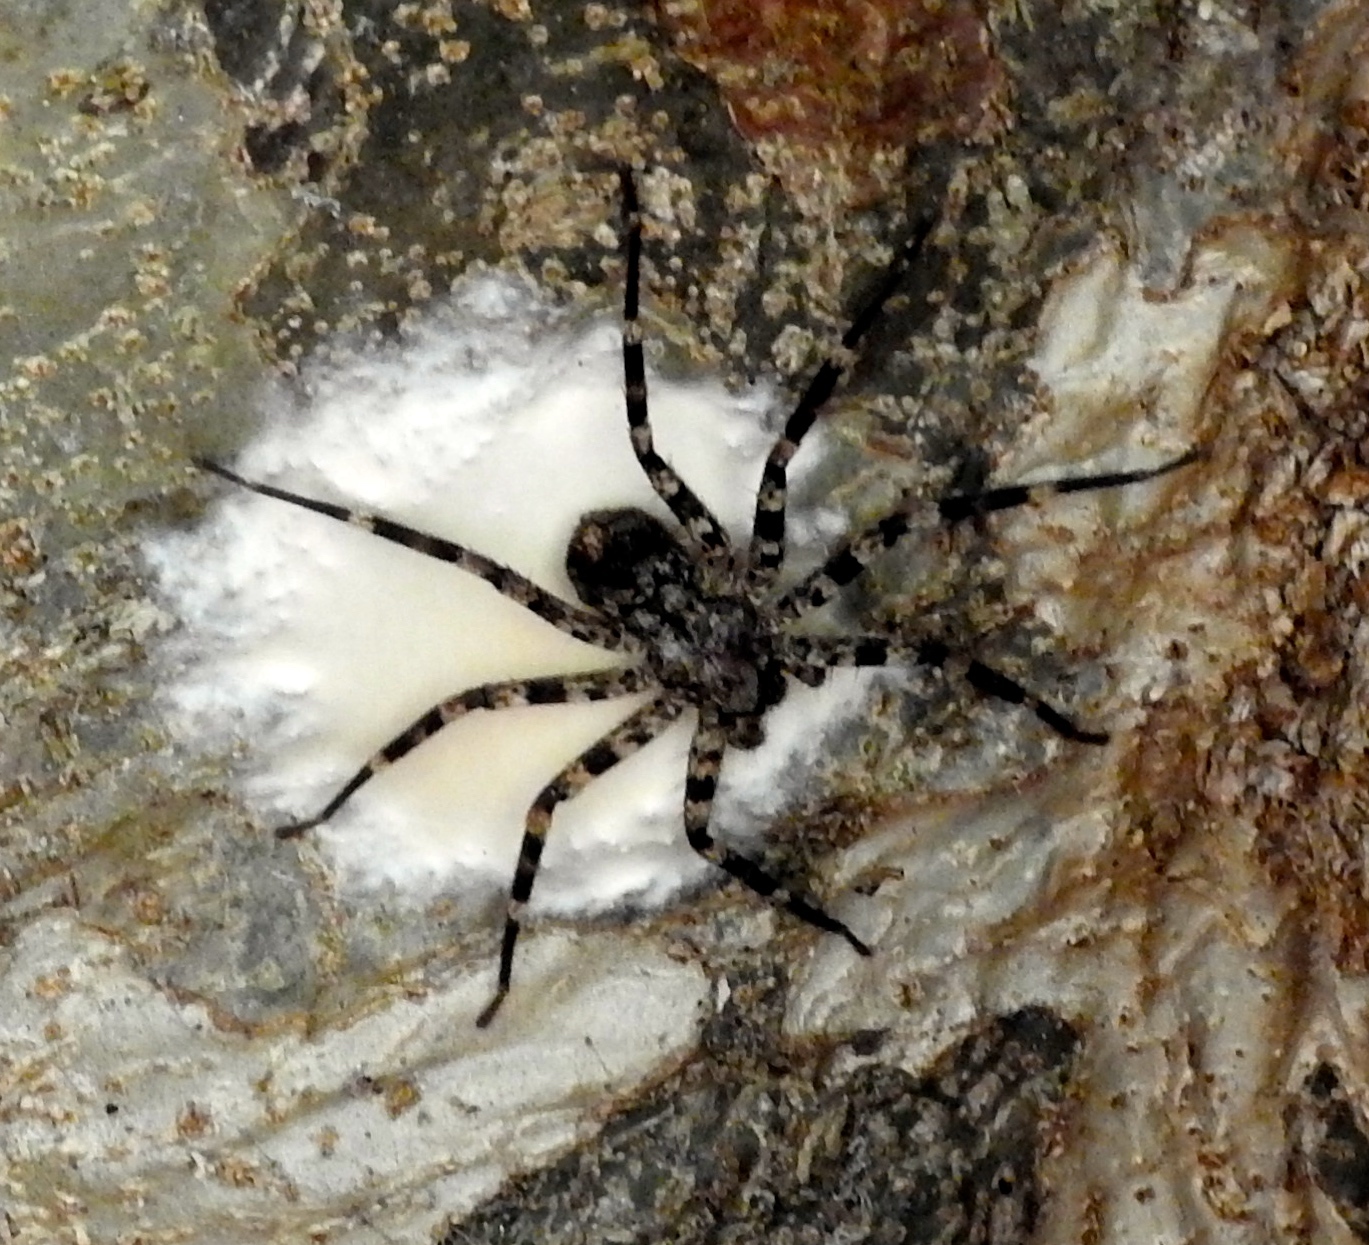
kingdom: Animalia
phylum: Arthropoda
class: Arachnida
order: Araneae
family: Selenopidae
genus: Selenops
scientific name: Selenops actophilus
